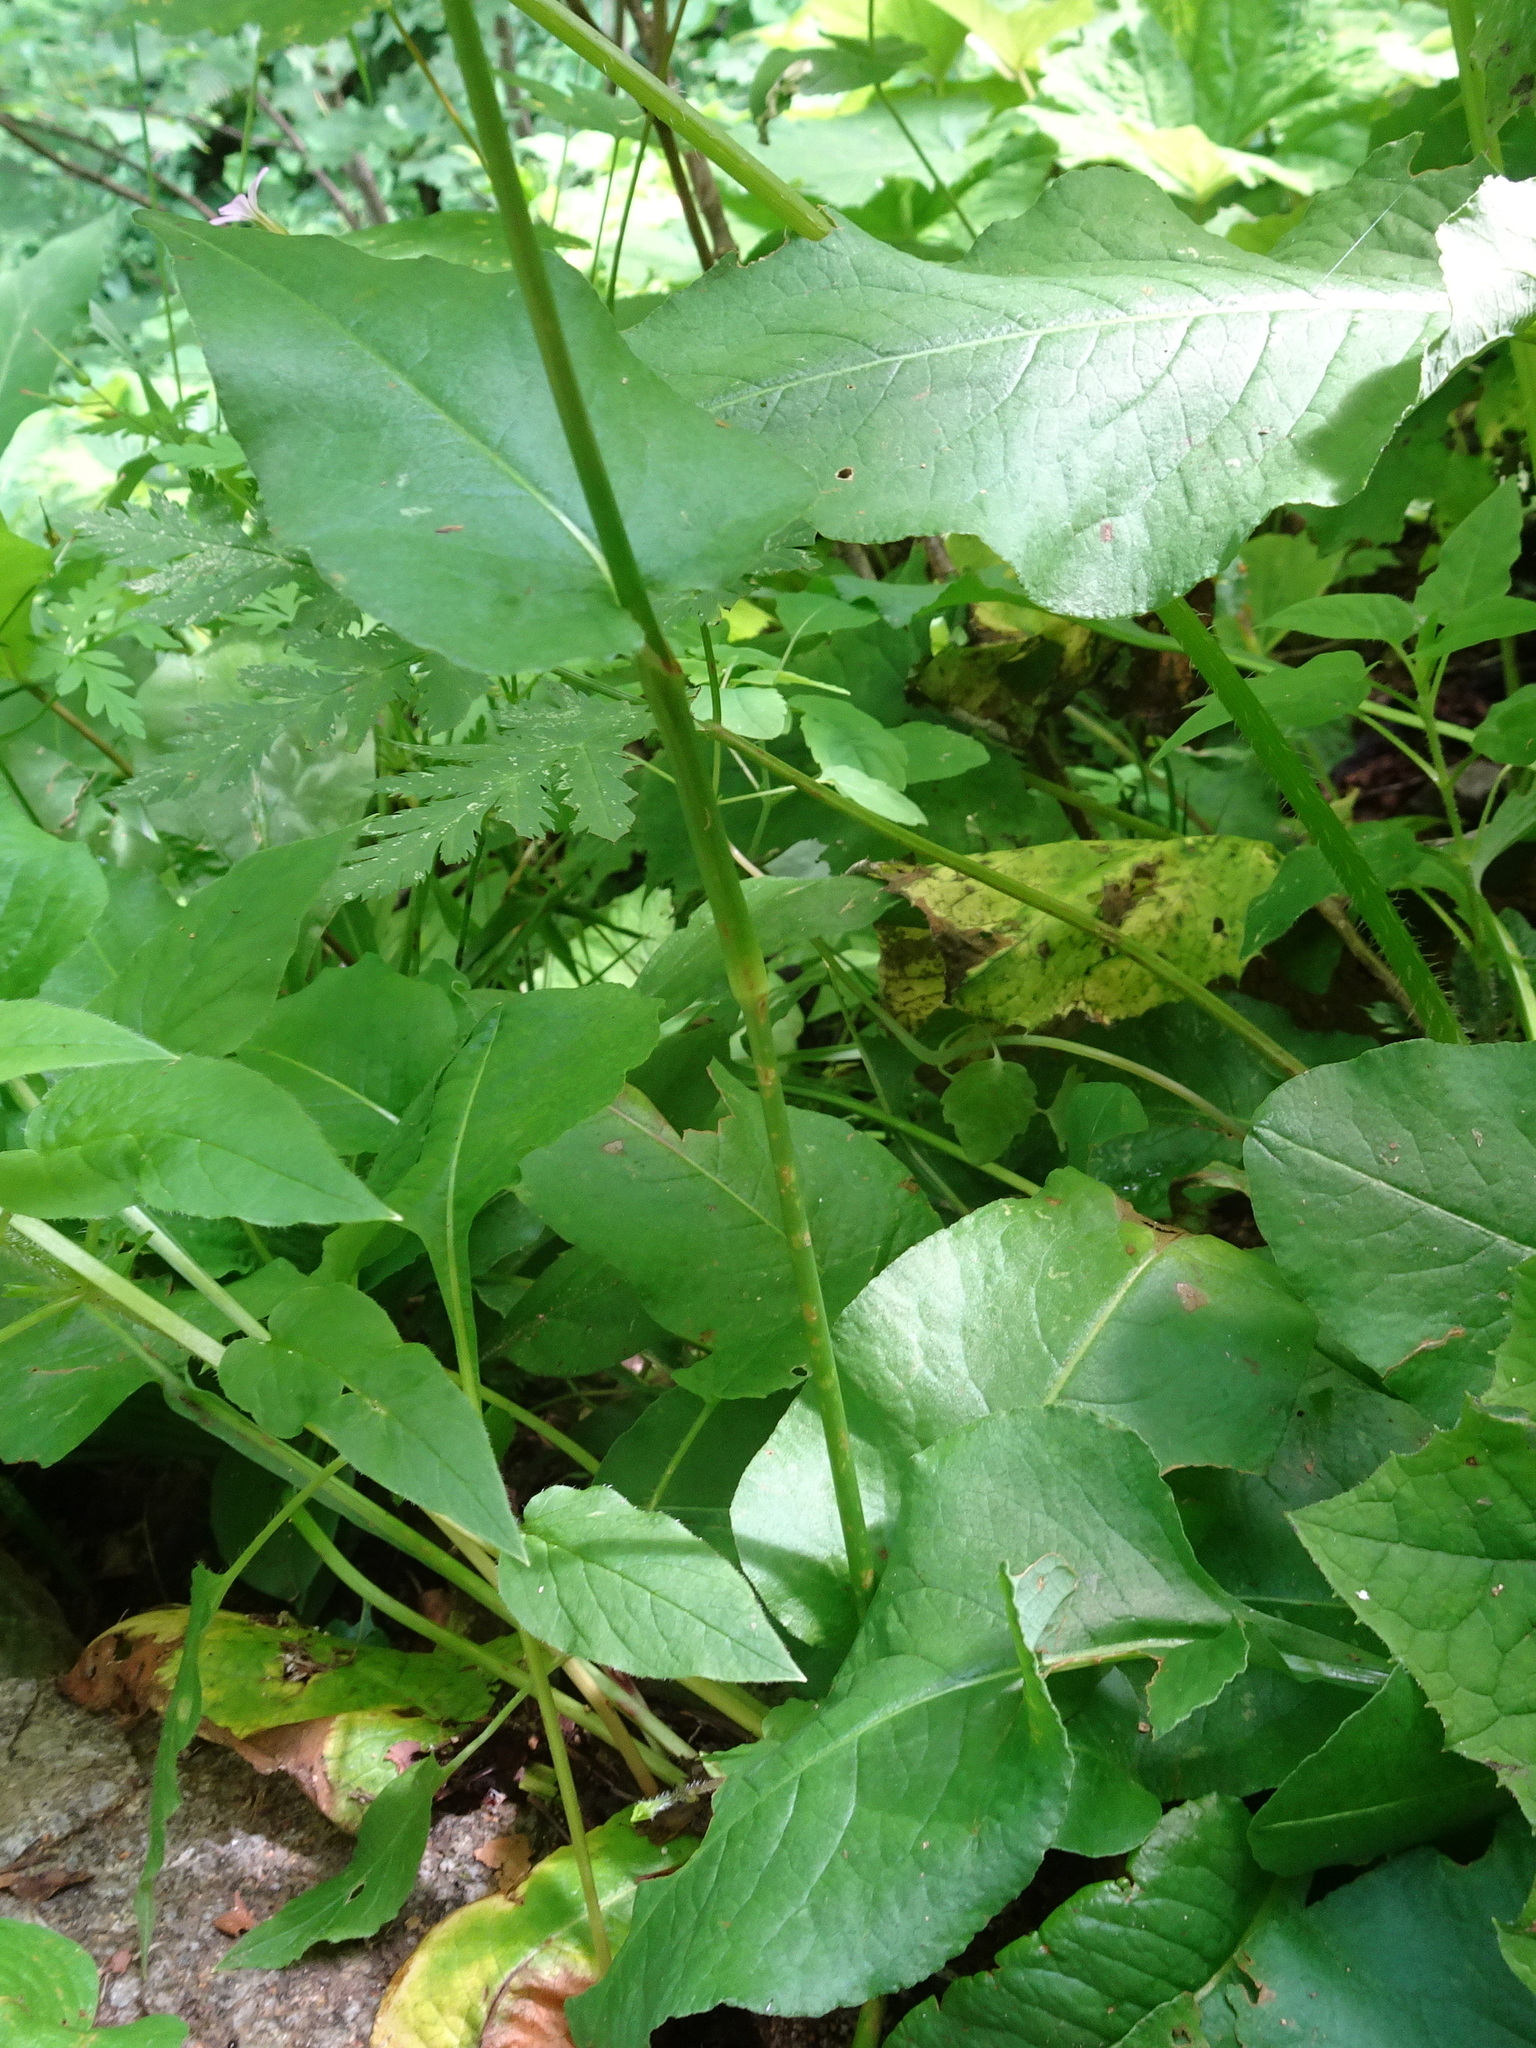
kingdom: Plantae
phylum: Tracheophyta
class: Magnoliopsida
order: Caryophyllales
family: Polygonaceae
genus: Bistorta
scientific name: Bistorta officinalis
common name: Common bistort
